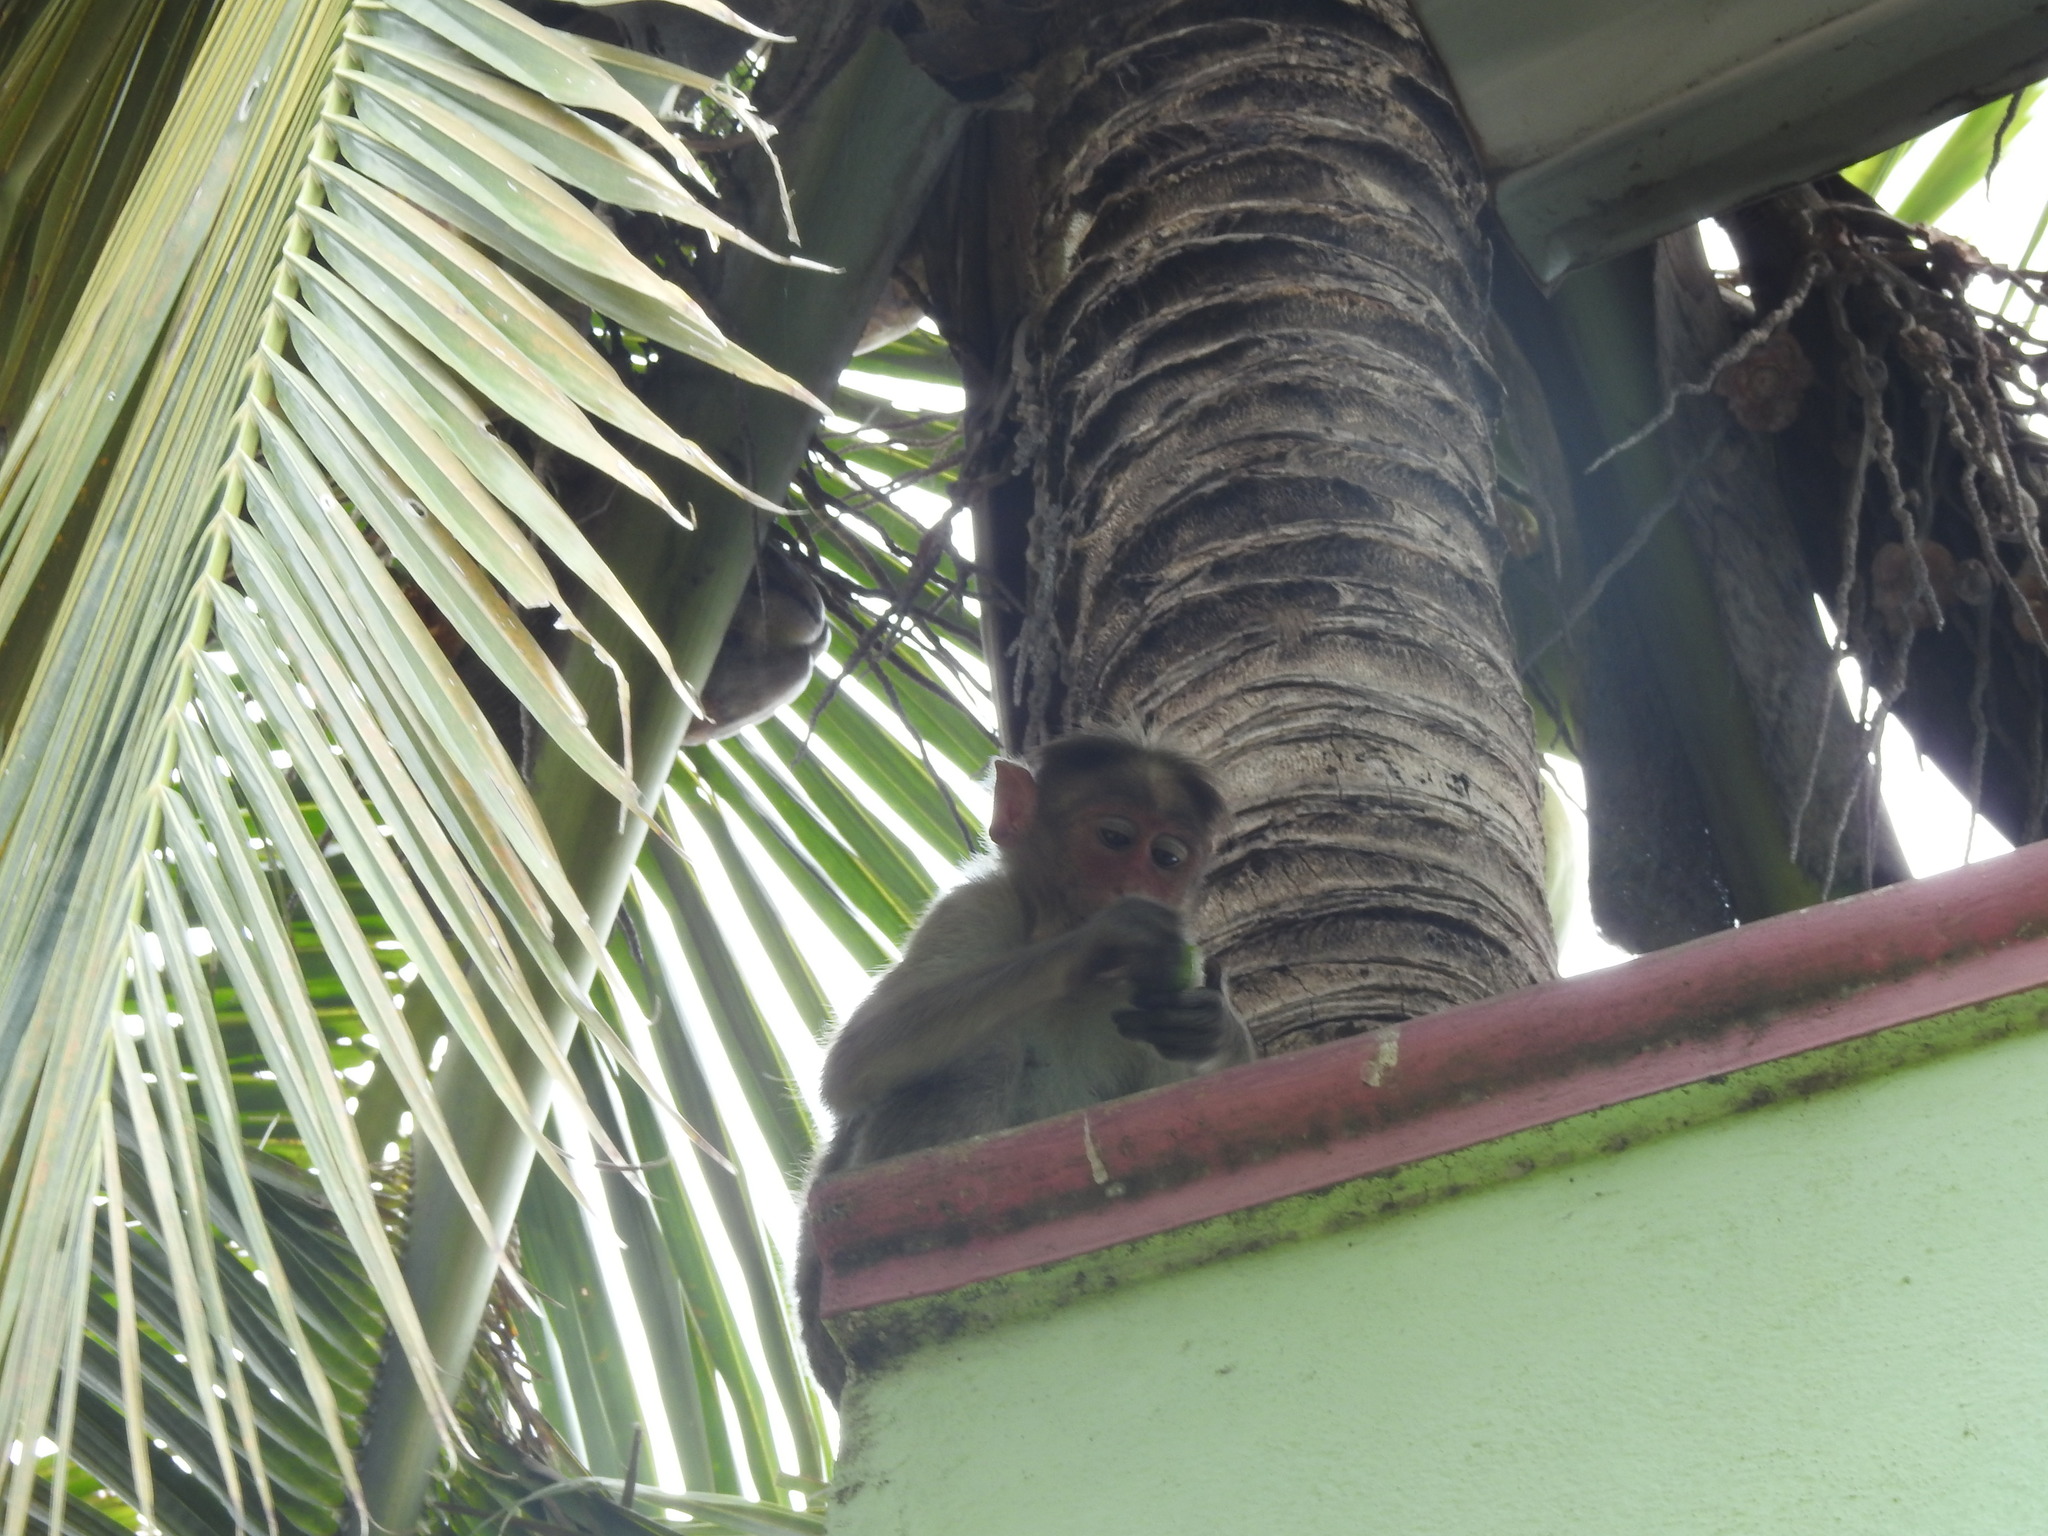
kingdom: Animalia
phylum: Chordata
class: Mammalia
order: Primates
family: Cercopithecidae
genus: Macaca
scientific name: Macaca radiata
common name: Bonnet macaque
